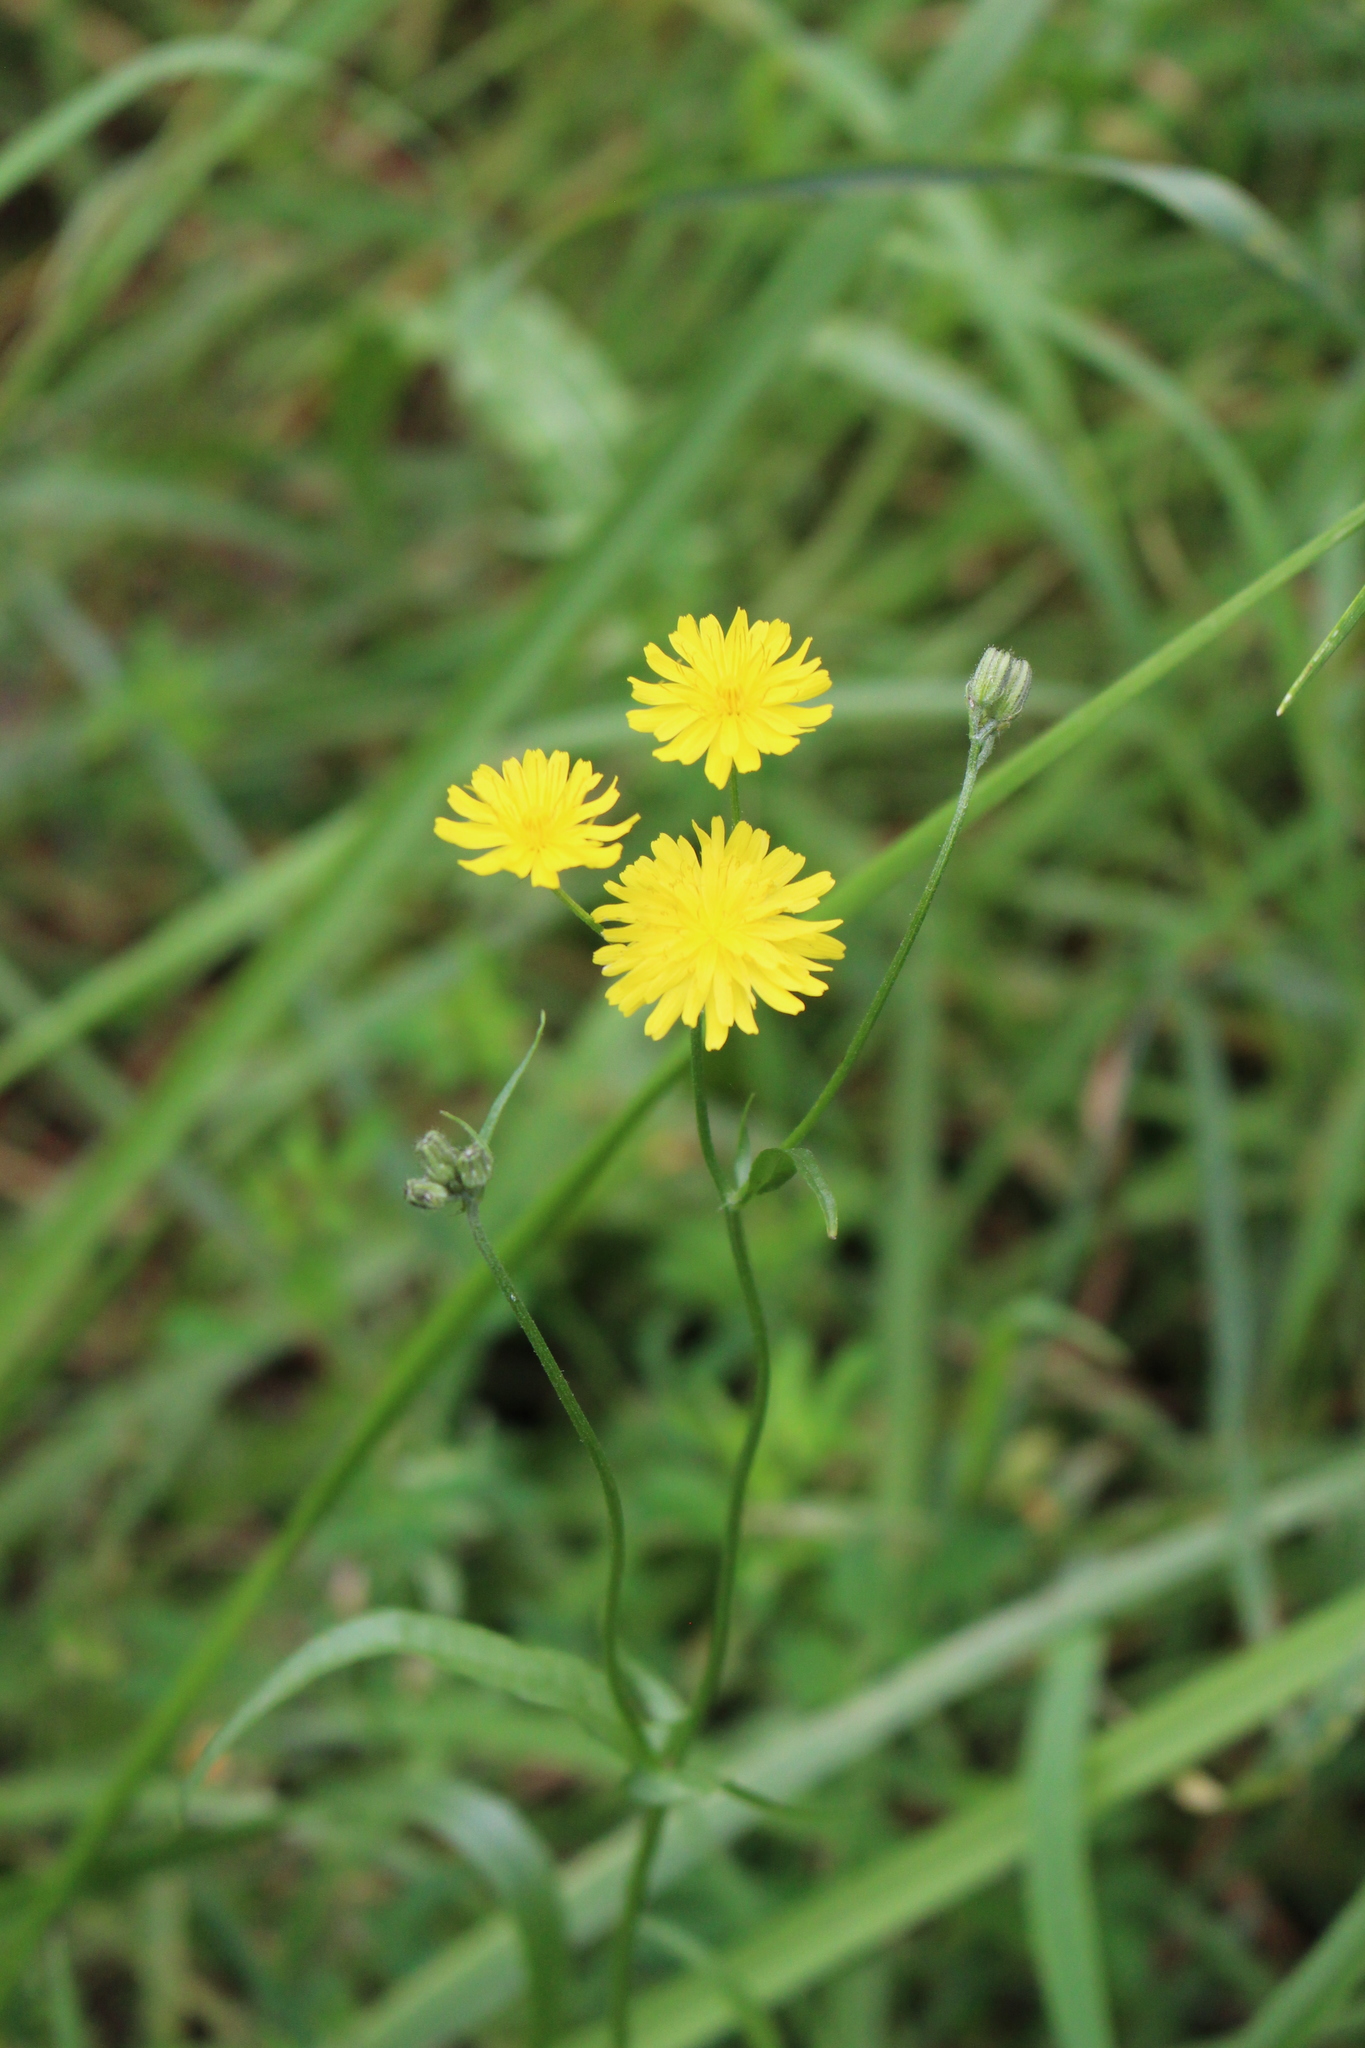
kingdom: Plantae
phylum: Tracheophyta
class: Magnoliopsida
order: Asterales
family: Asteraceae
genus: Crepis
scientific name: Crepis capillaris
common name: Smooth hawksbeard
